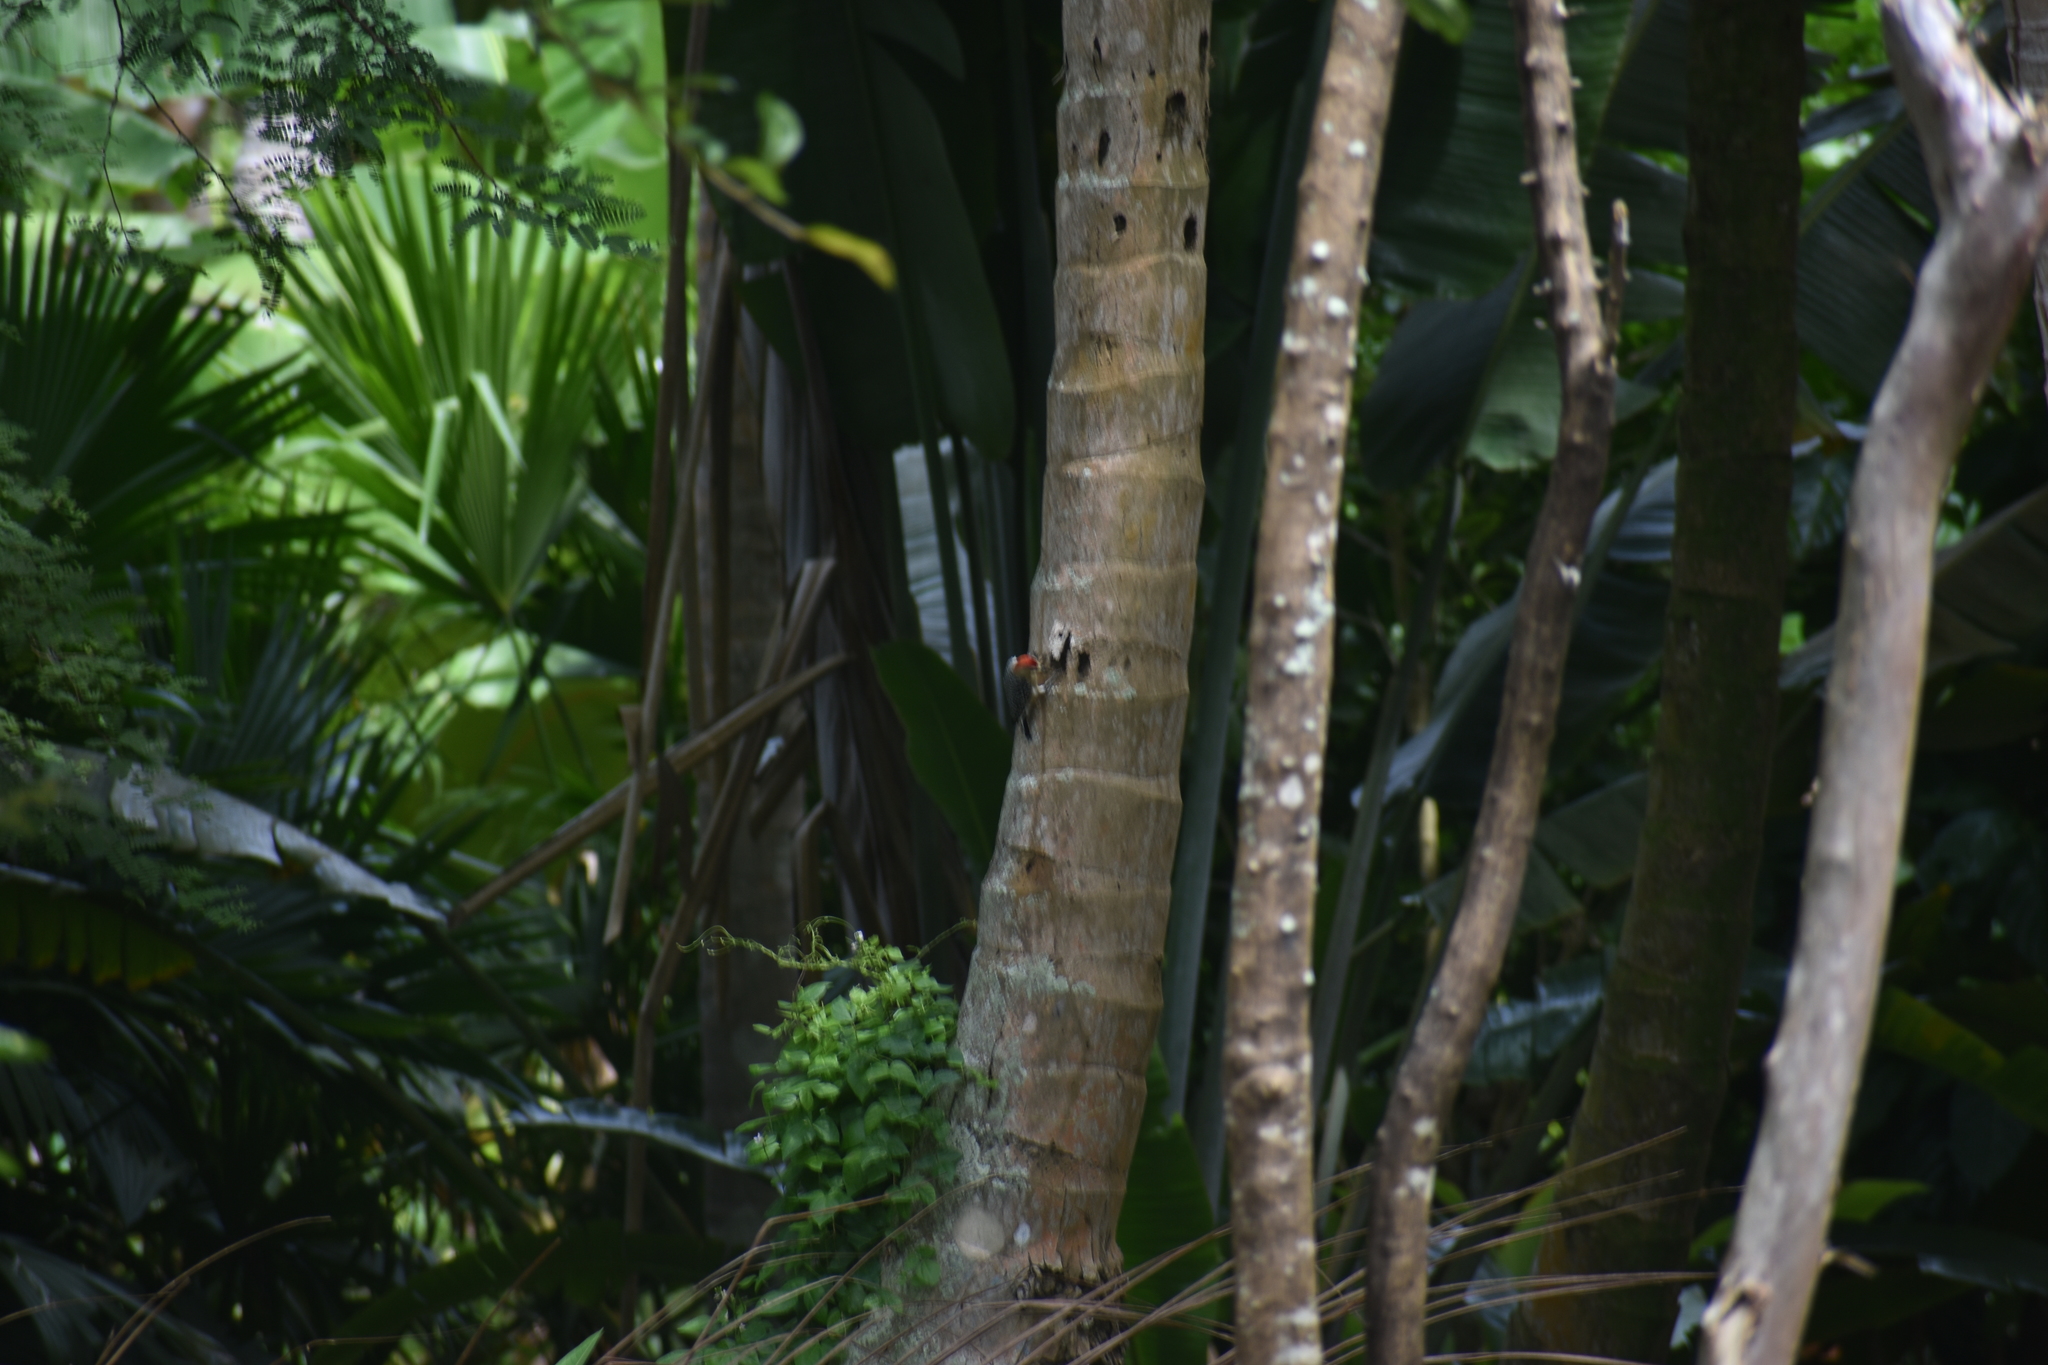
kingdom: Animalia
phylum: Chordata
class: Aves
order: Piciformes
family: Picidae
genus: Melanerpes
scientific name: Melanerpes rubricapillus
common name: Red-crowned woodpecker
